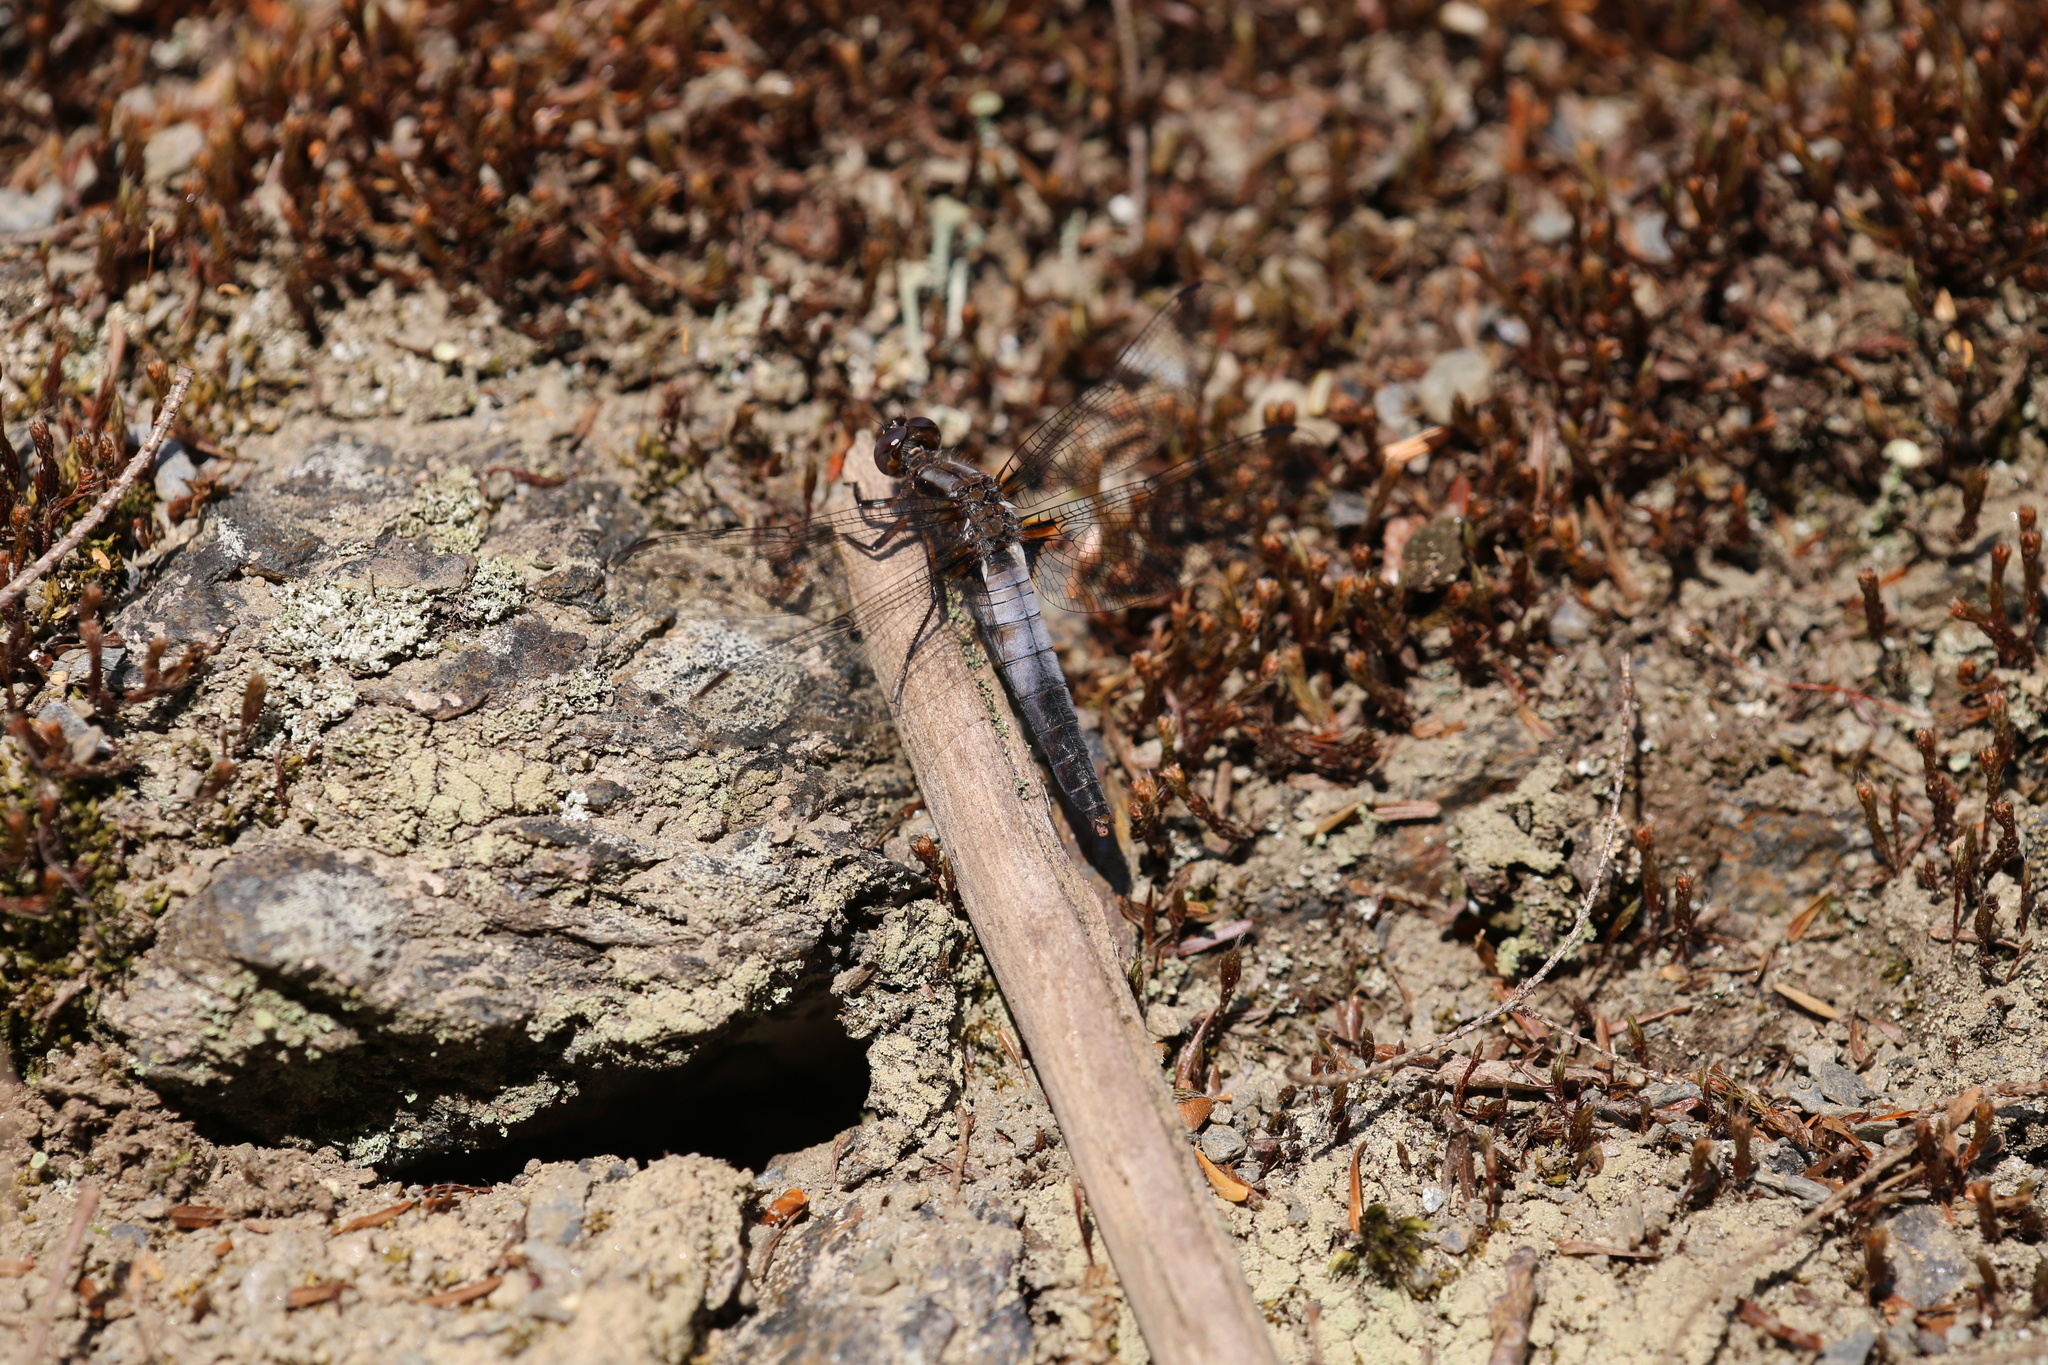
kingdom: Animalia
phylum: Arthropoda
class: Insecta
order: Odonata
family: Libellulidae
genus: Ladona
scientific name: Ladona julia
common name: Chalk-fronted corporal
